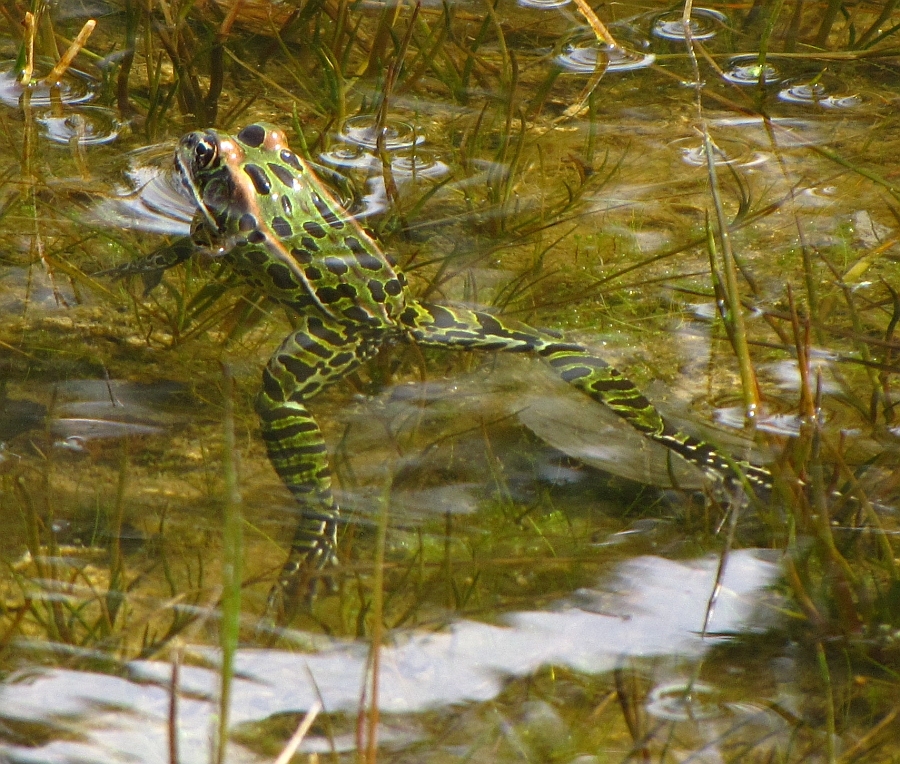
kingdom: Animalia
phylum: Chordata
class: Amphibia
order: Anura
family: Ranidae
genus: Lithobates
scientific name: Lithobates pipiens
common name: Northern leopard frog
